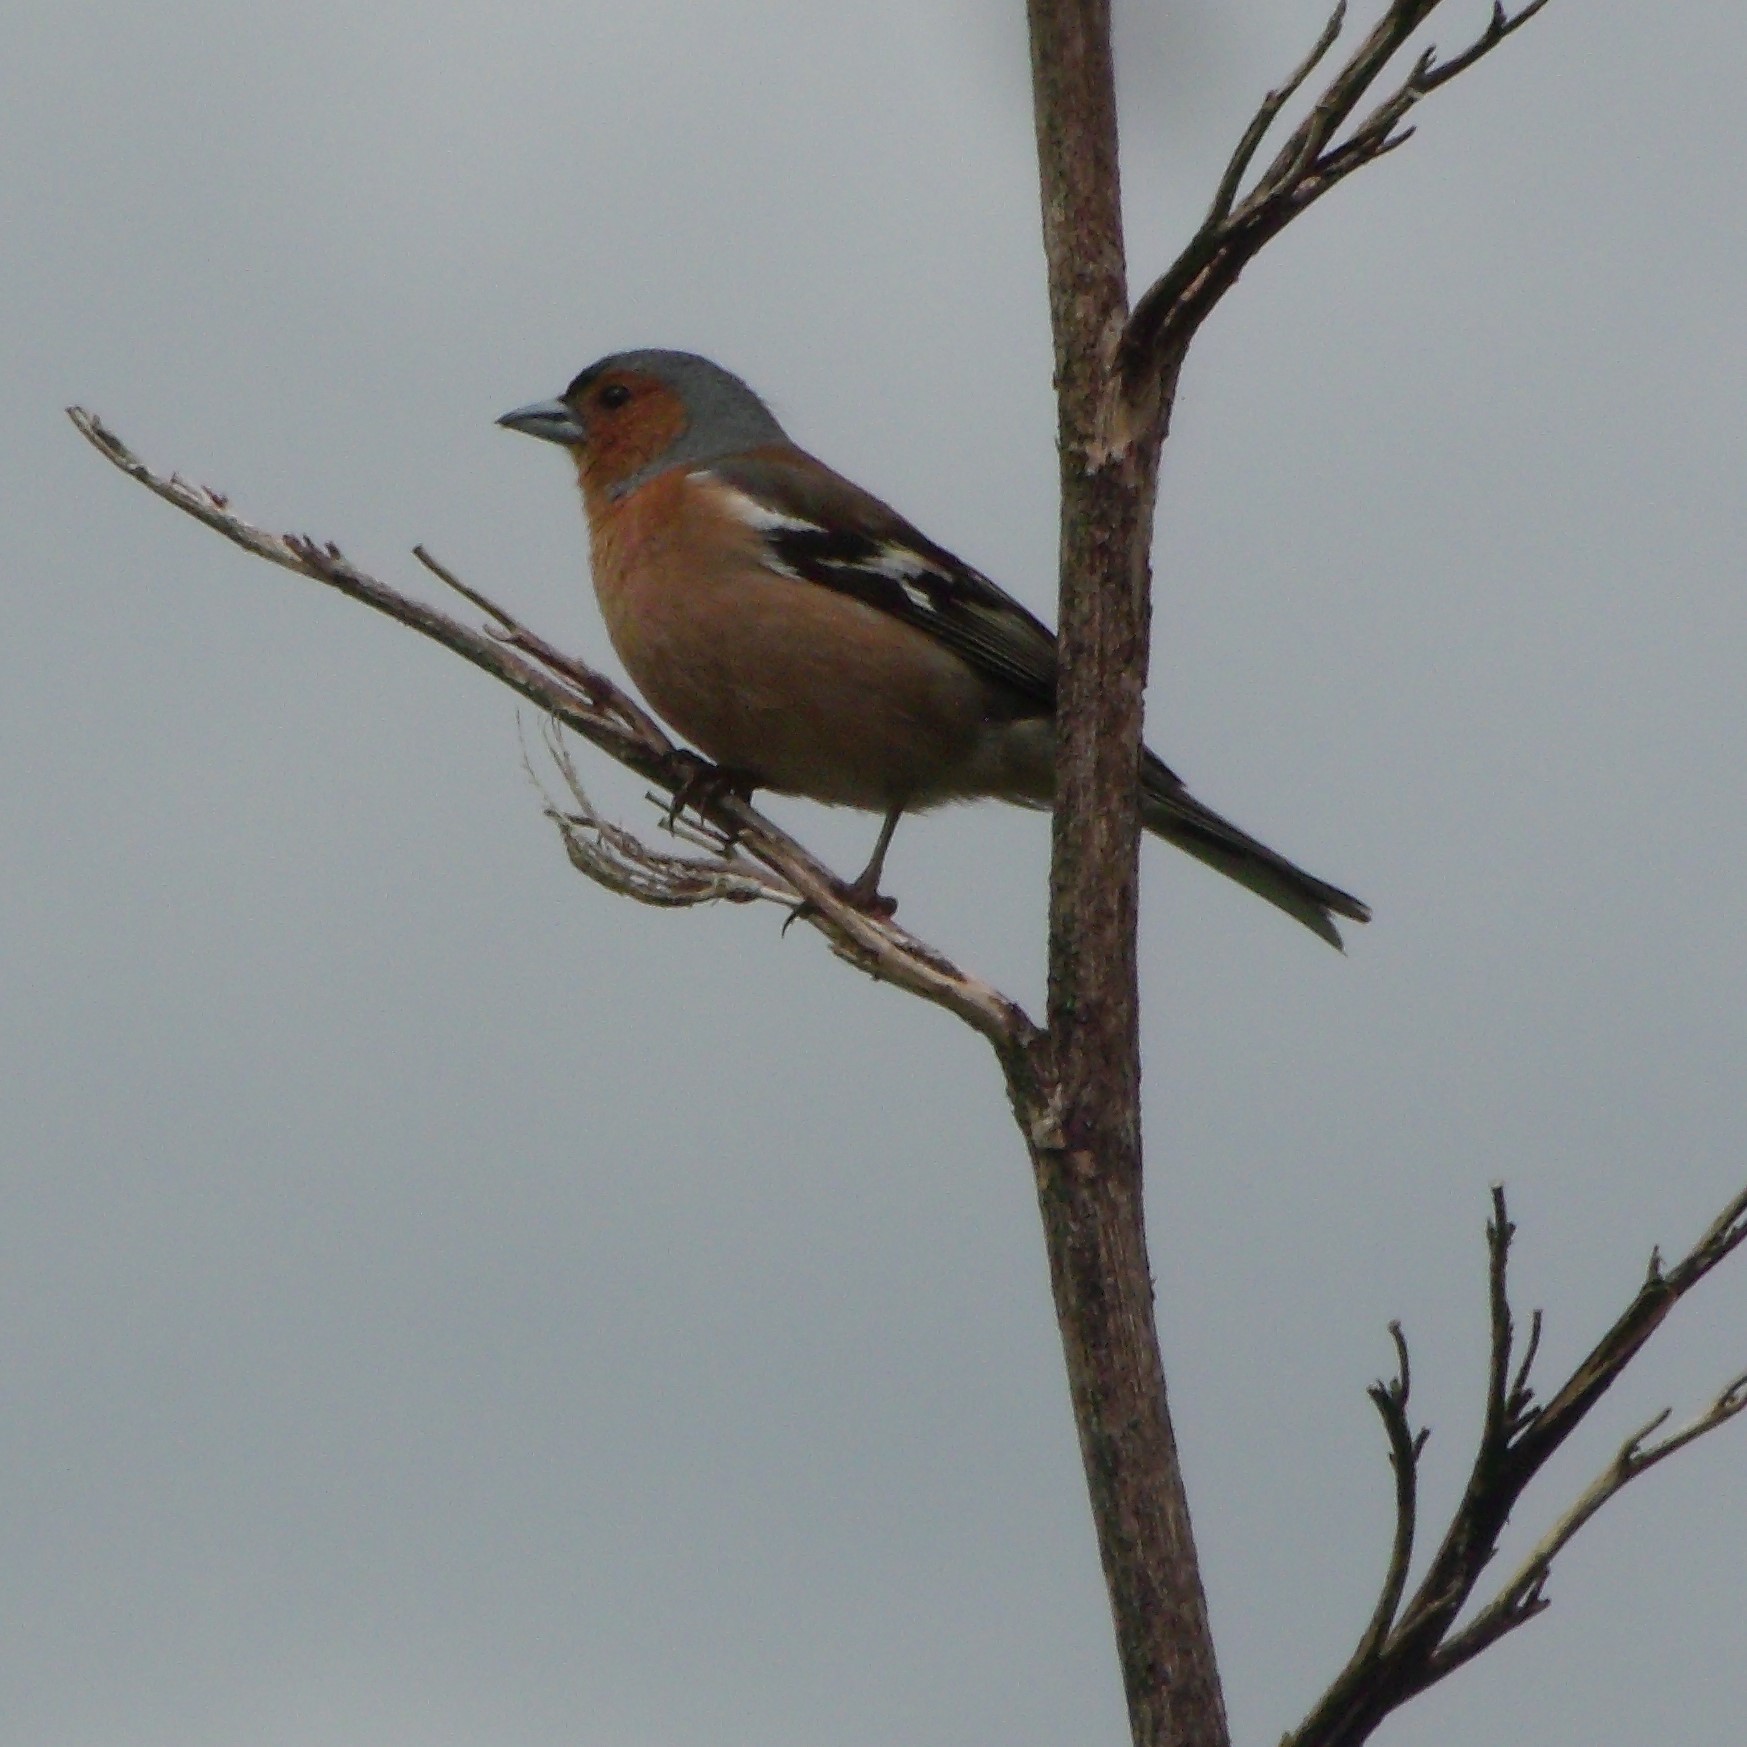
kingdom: Animalia
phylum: Chordata
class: Aves
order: Passeriformes
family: Fringillidae
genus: Fringilla
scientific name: Fringilla coelebs
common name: Common chaffinch
